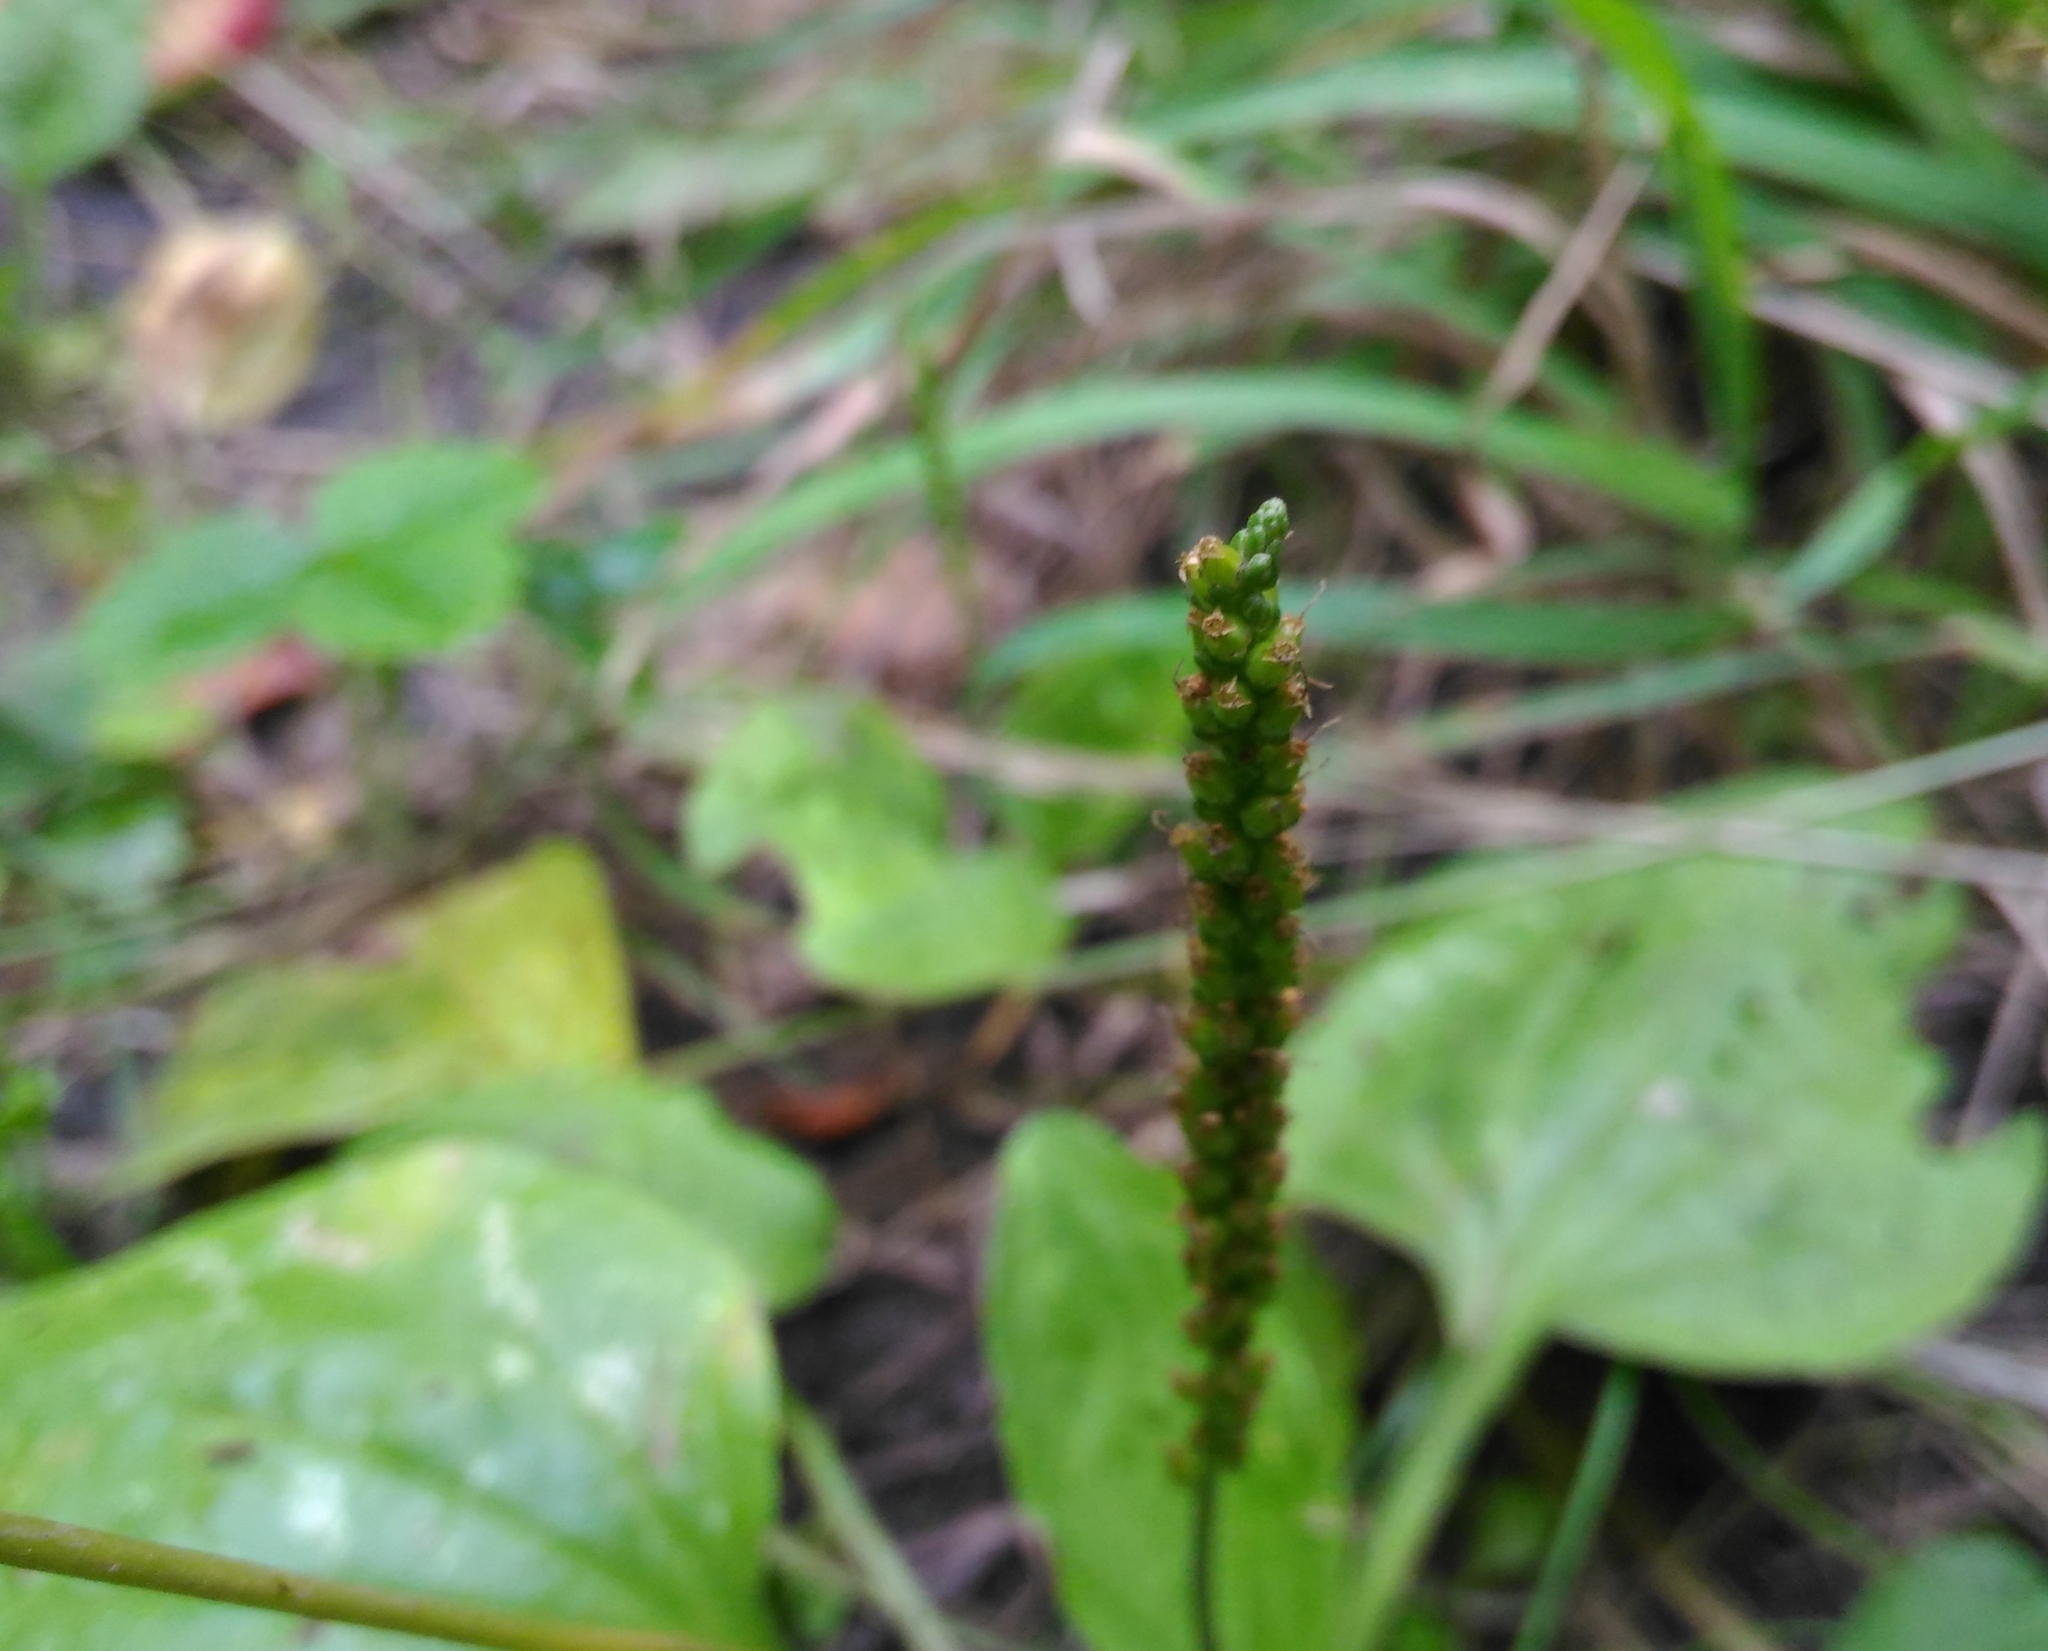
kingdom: Plantae
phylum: Tracheophyta
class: Magnoliopsida
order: Lamiales
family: Plantaginaceae
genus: Plantago
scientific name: Plantago major
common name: Common plantain
